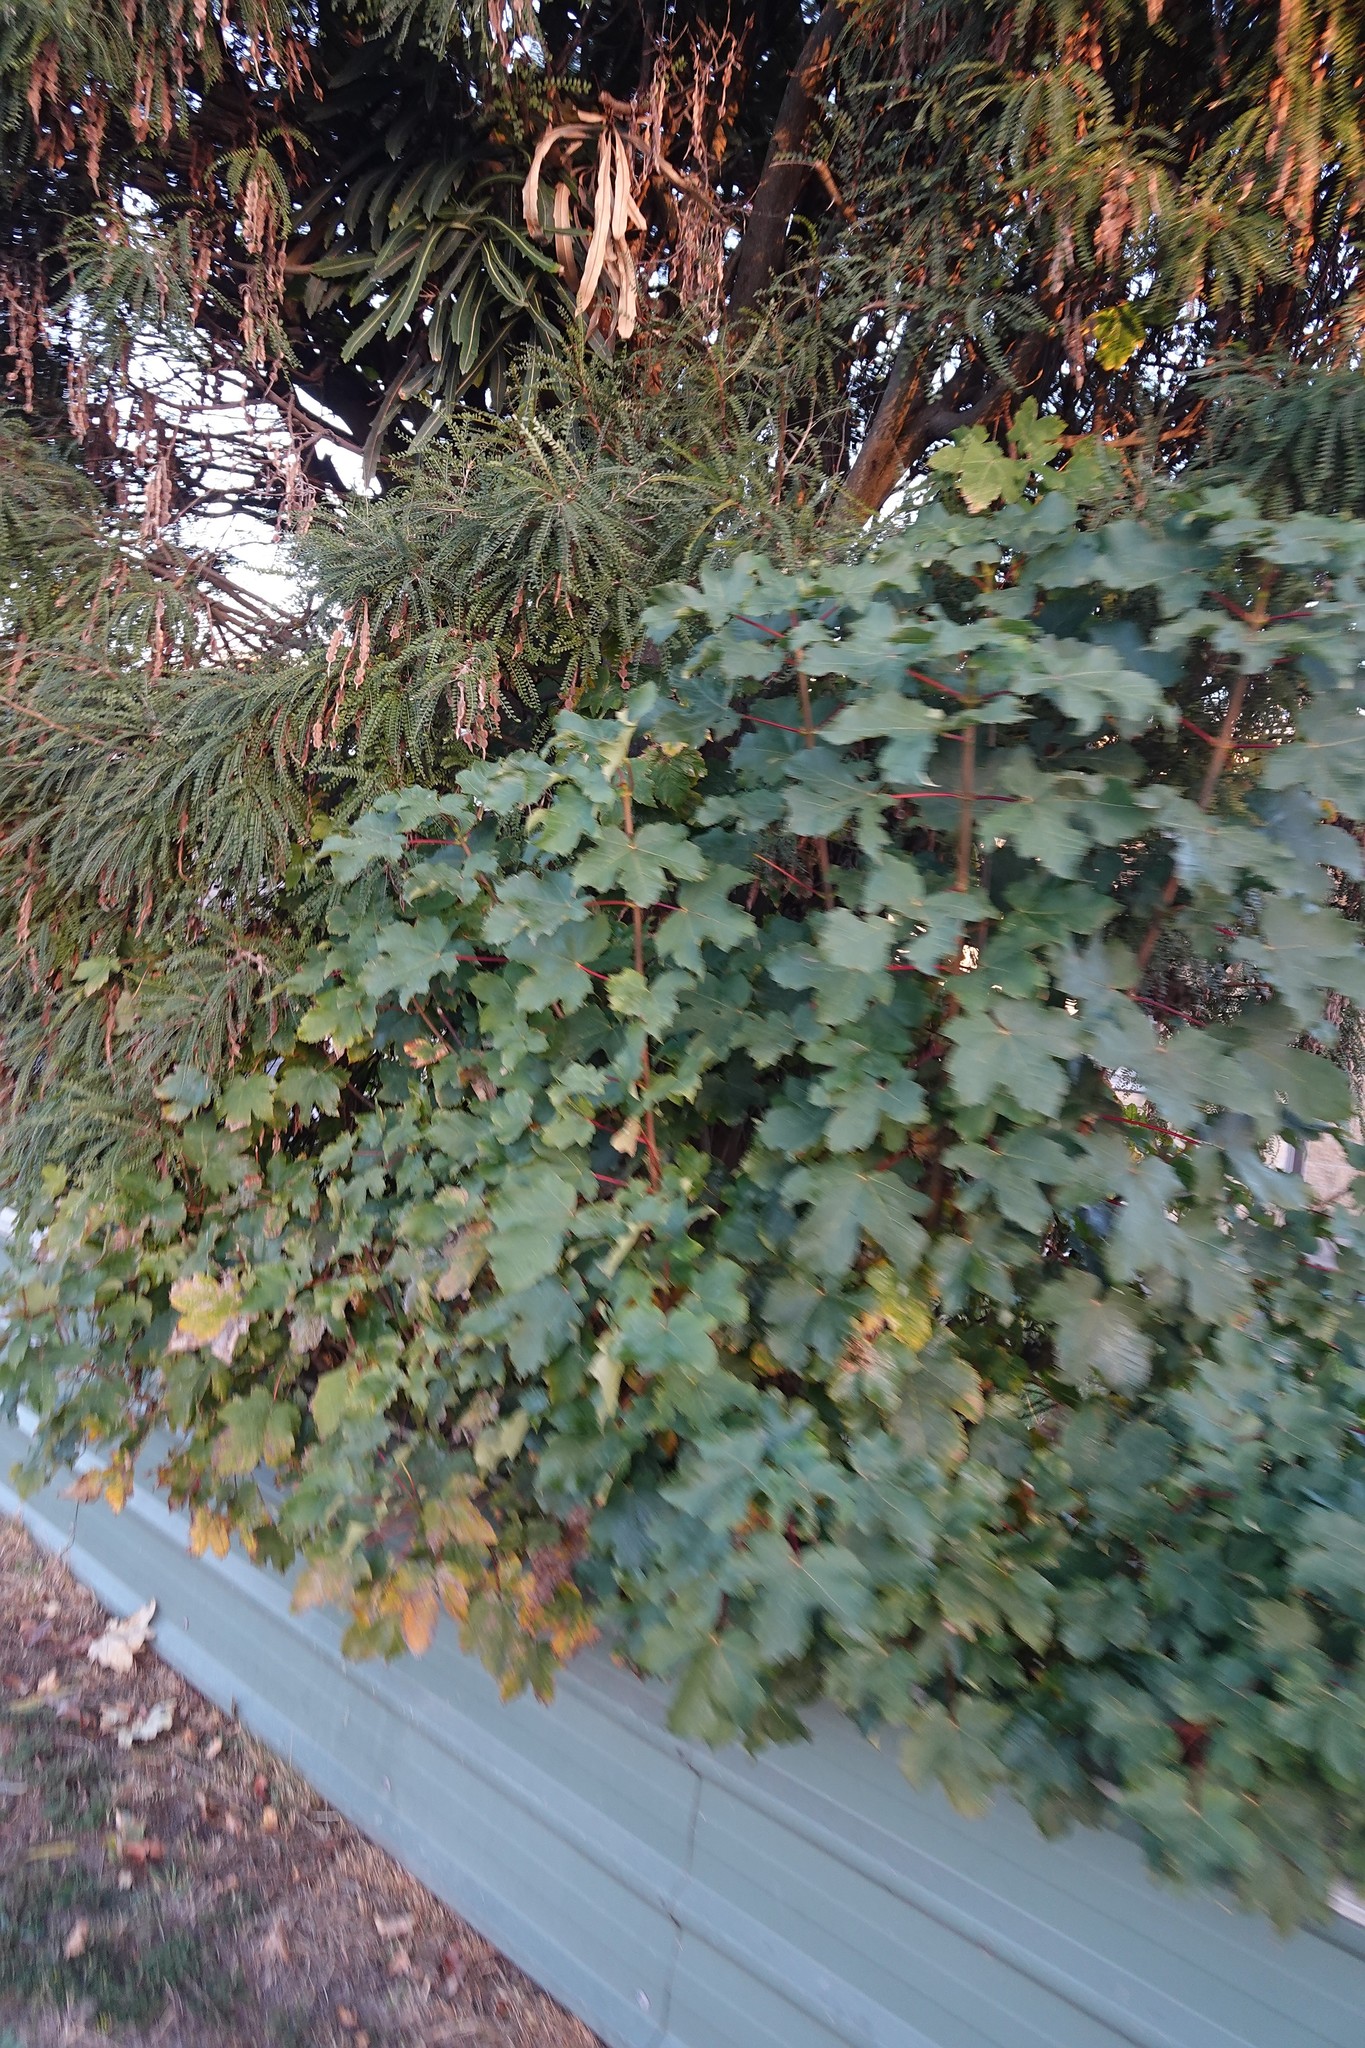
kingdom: Plantae
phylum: Tracheophyta
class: Magnoliopsida
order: Sapindales
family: Sapindaceae
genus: Acer
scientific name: Acer pseudoplatanus
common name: Sycamore
